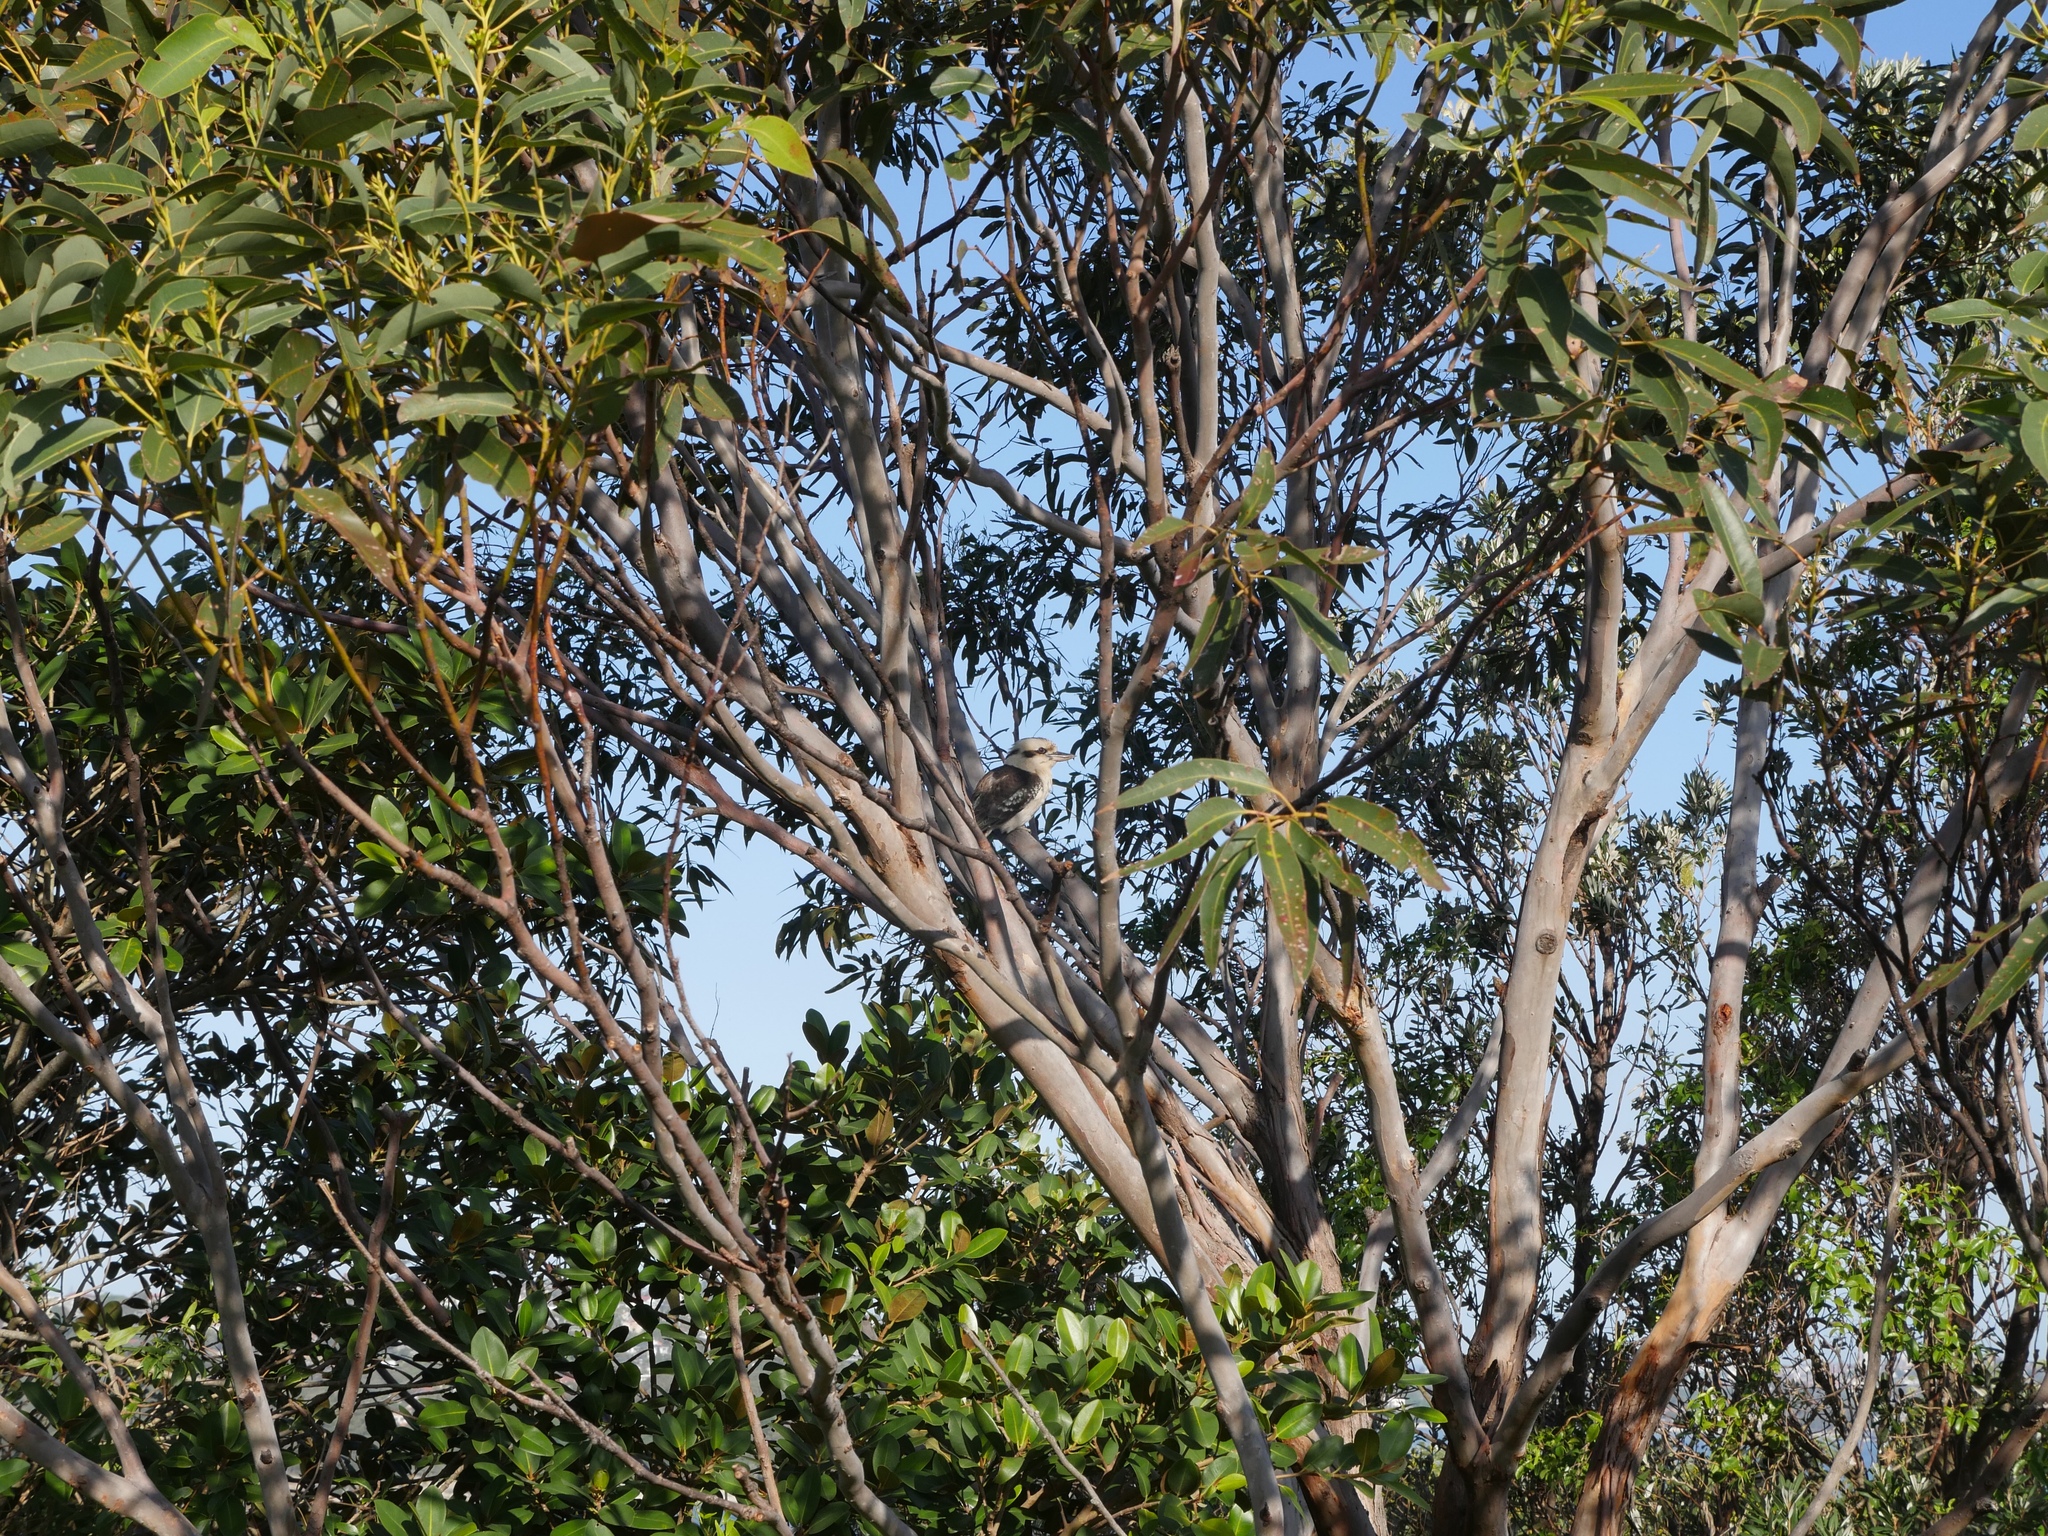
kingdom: Animalia
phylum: Chordata
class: Aves
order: Coraciiformes
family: Alcedinidae
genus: Dacelo
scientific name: Dacelo novaeguineae
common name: Laughing kookaburra
